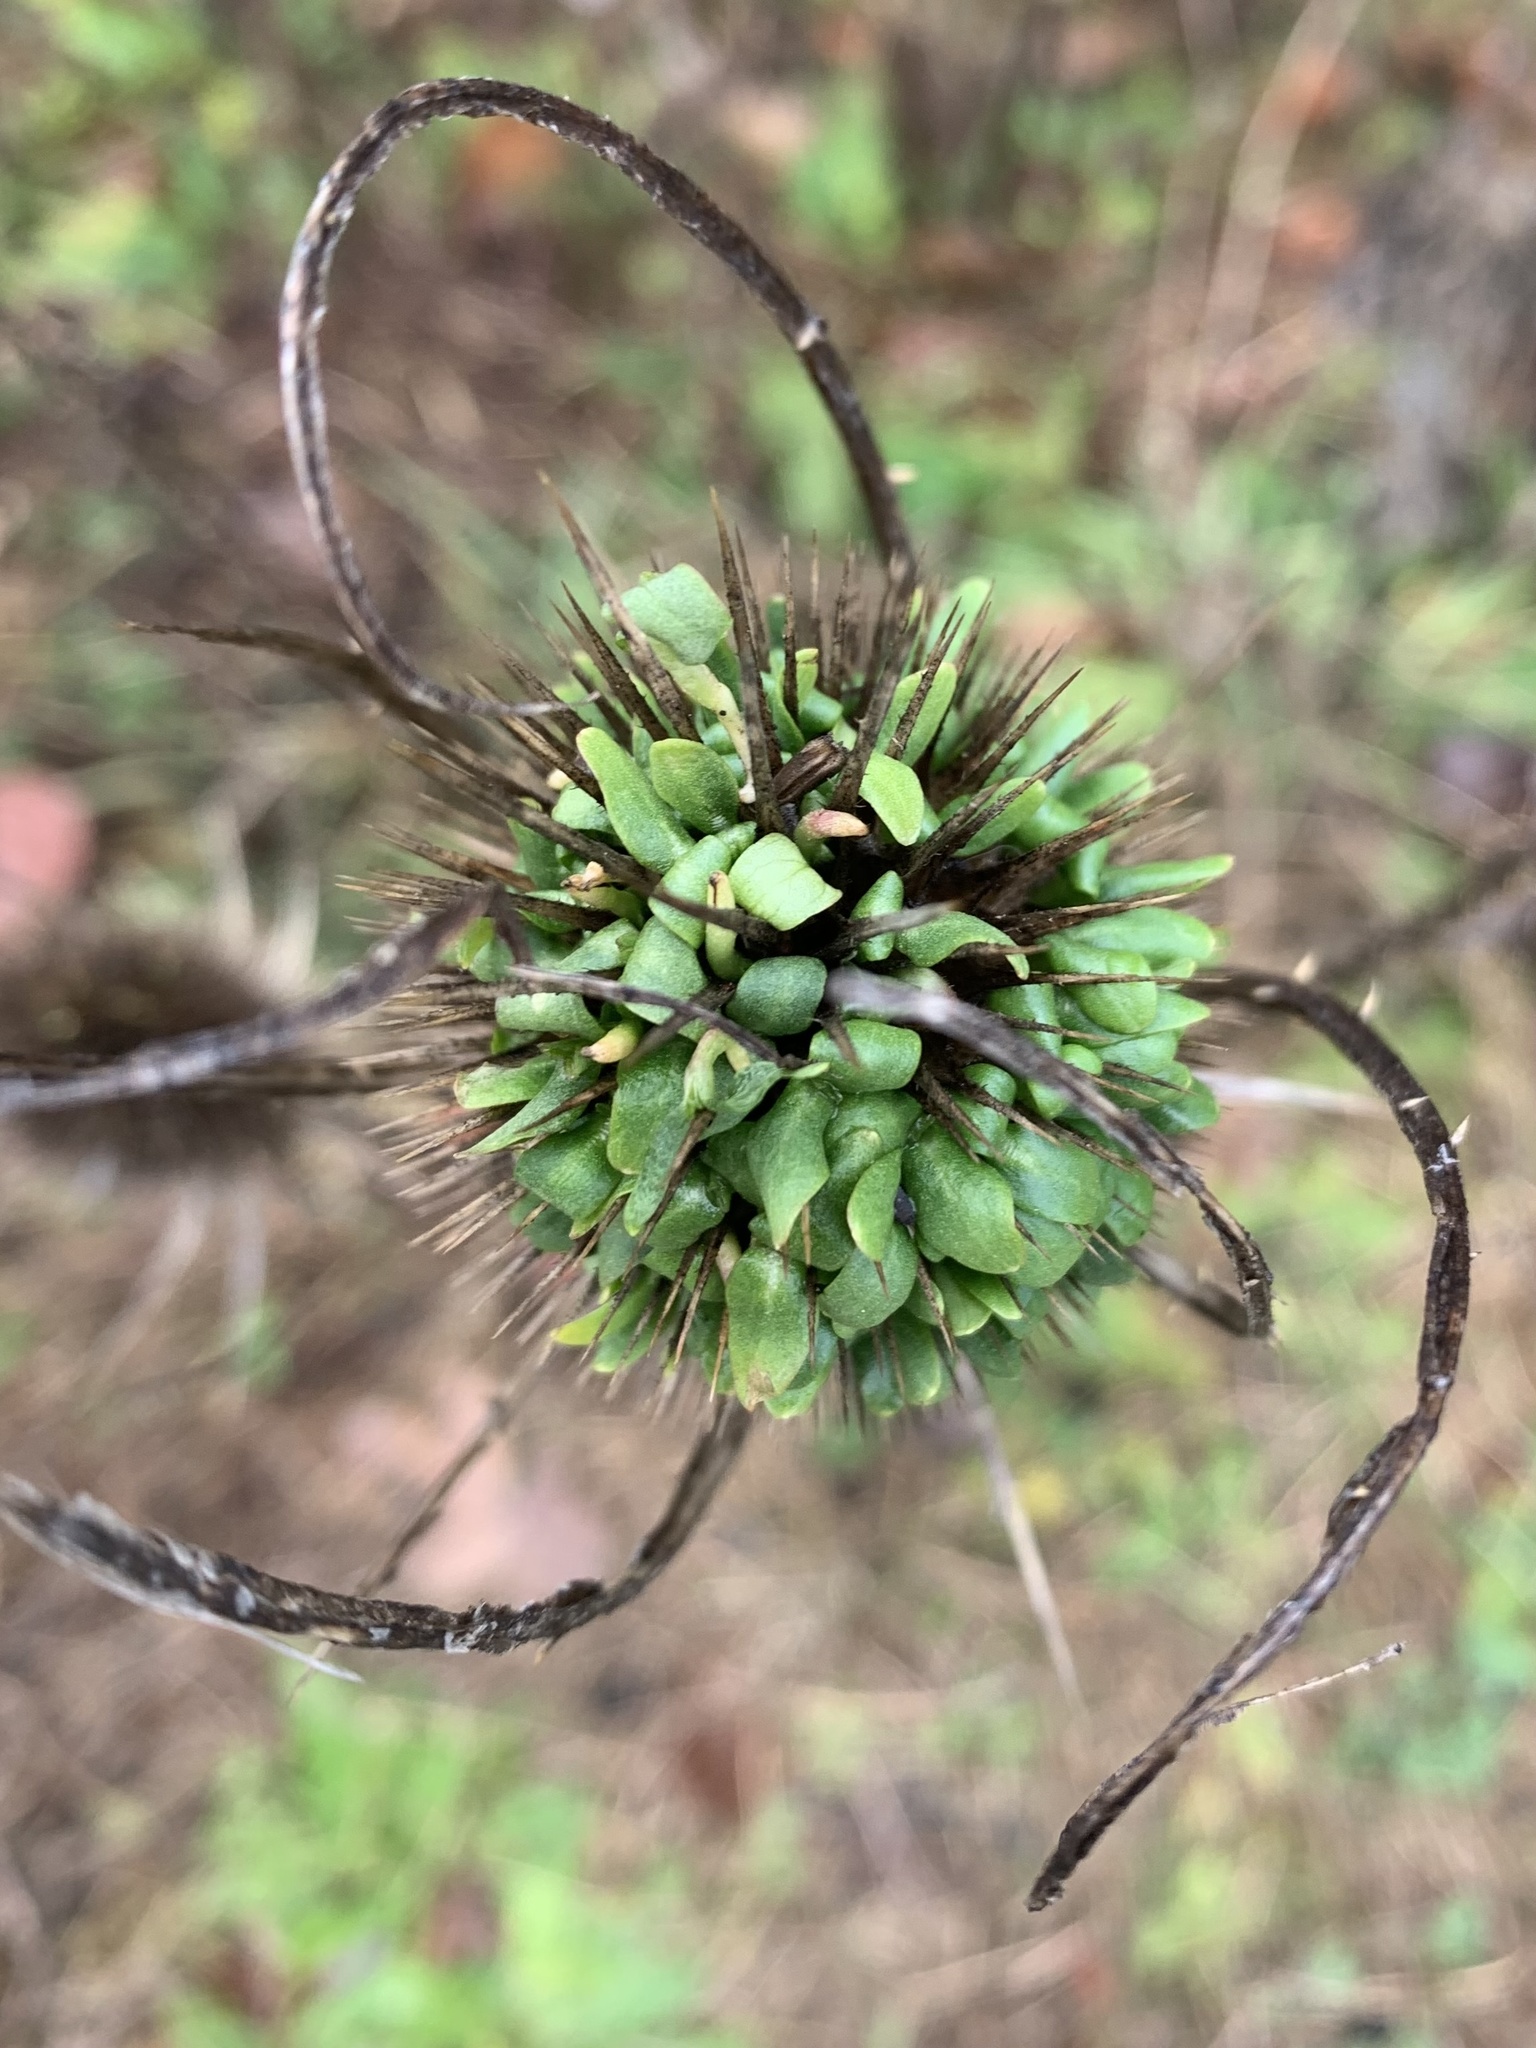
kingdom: Plantae
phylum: Tracheophyta
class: Magnoliopsida
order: Dipsacales
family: Caprifoliaceae
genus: Dipsacus
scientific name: Dipsacus fullonum
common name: Teasel
